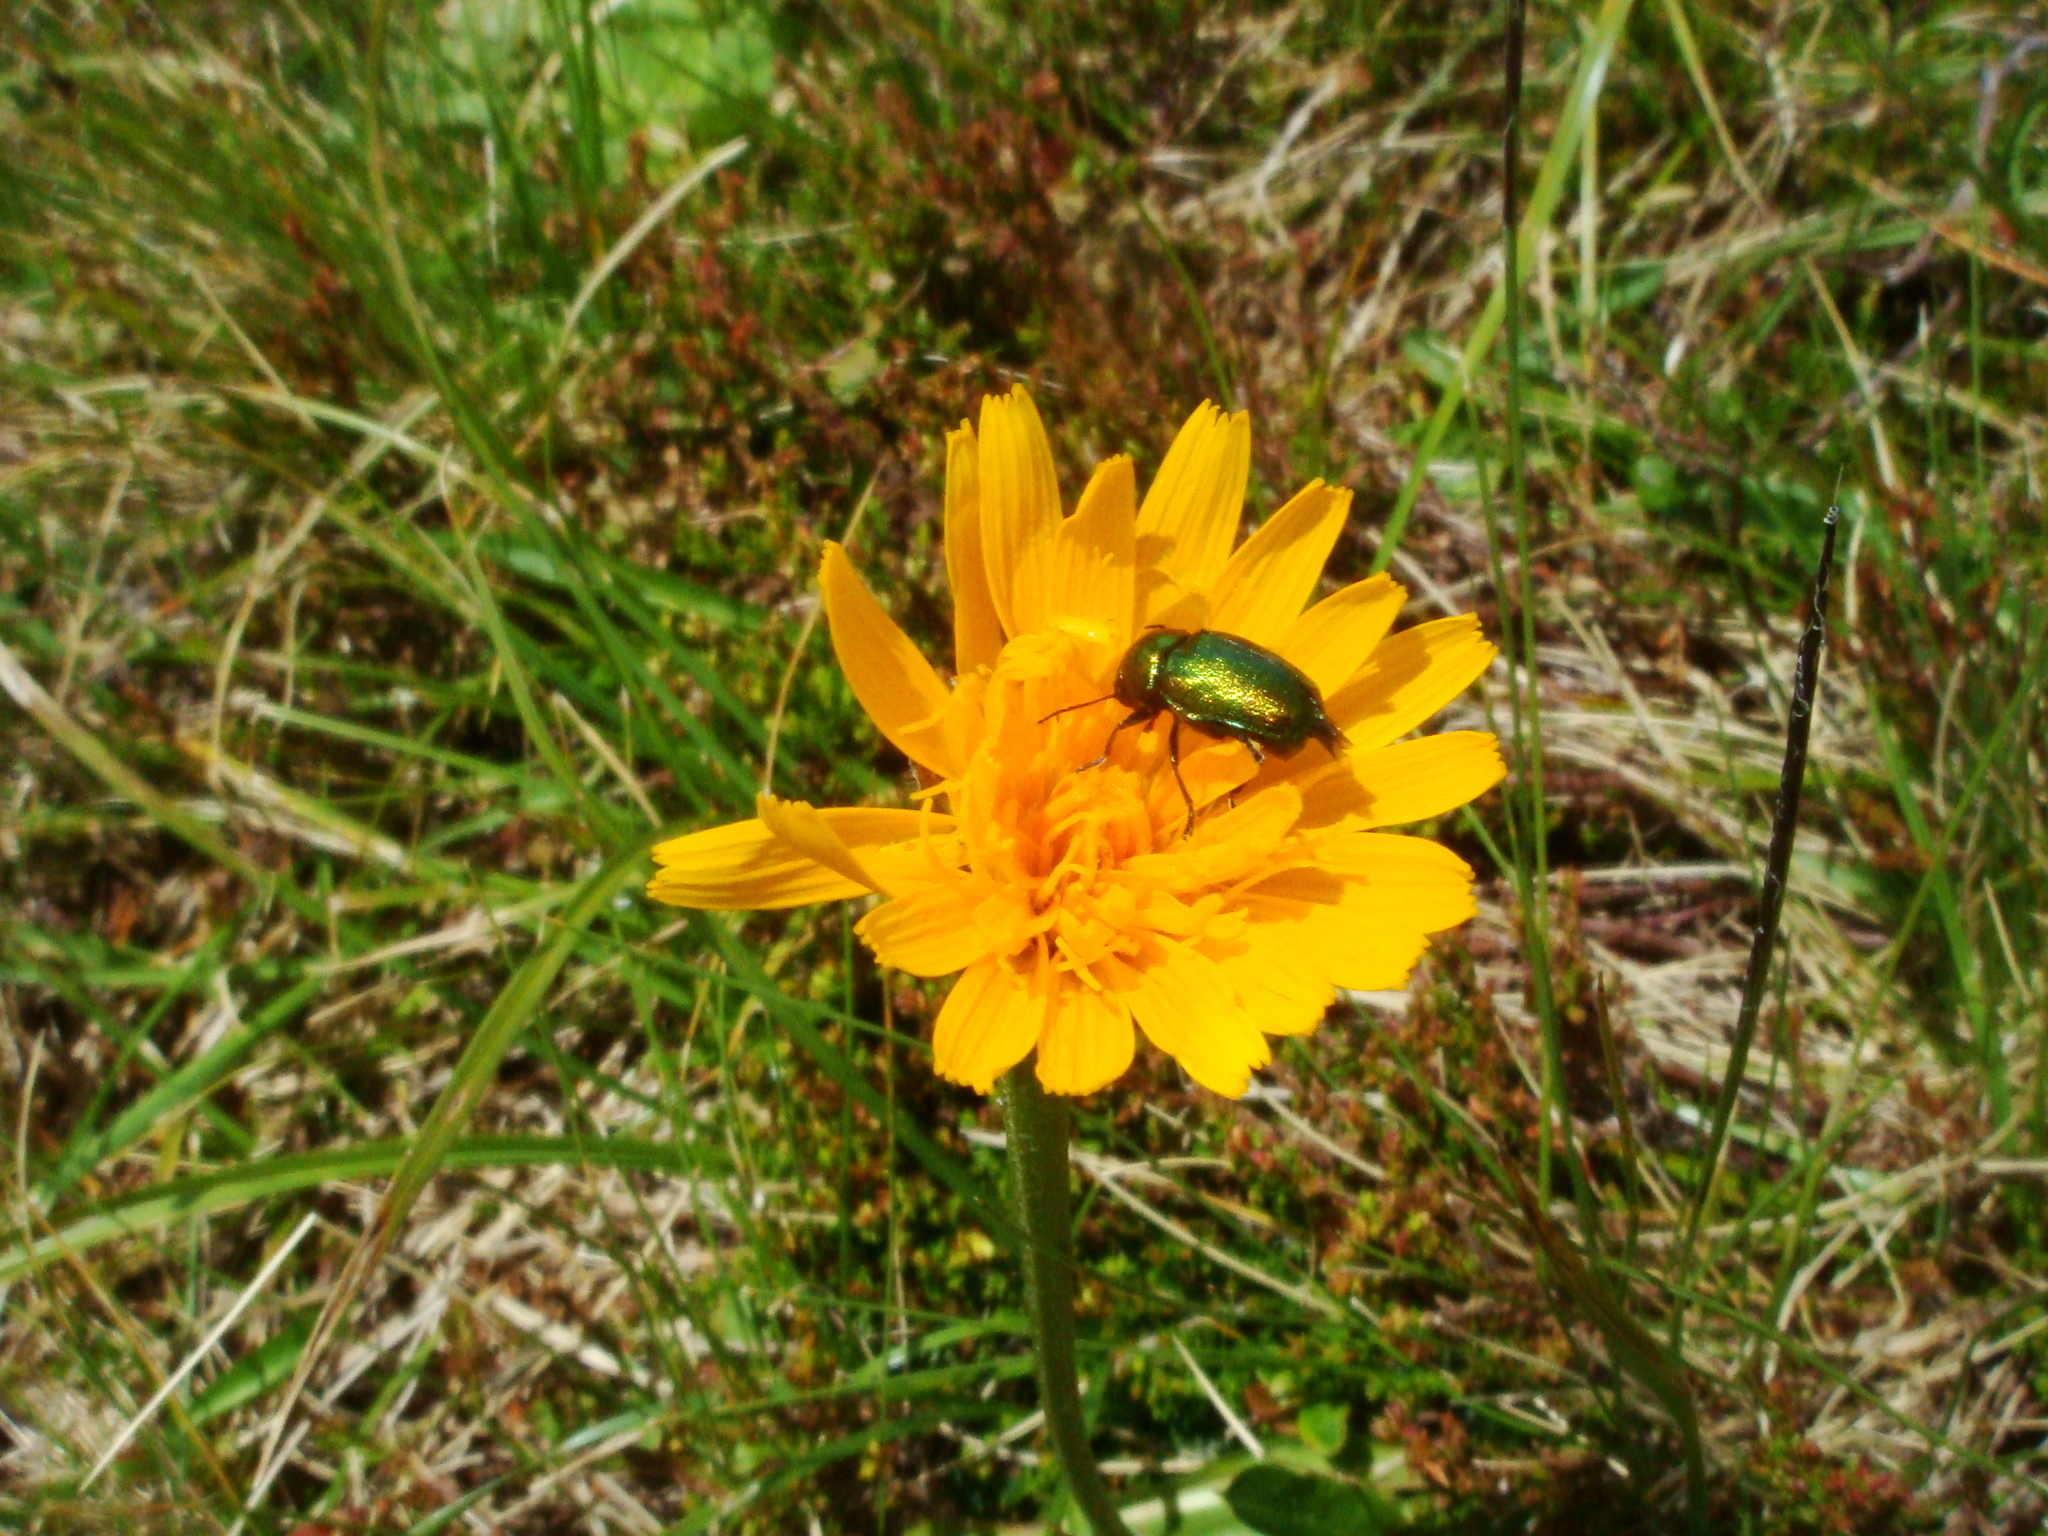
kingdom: Plantae
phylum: Tracheophyta
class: Magnoliopsida
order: Asterales
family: Asteraceae
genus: Scorzoneroides
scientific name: Scorzoneroides crocea
